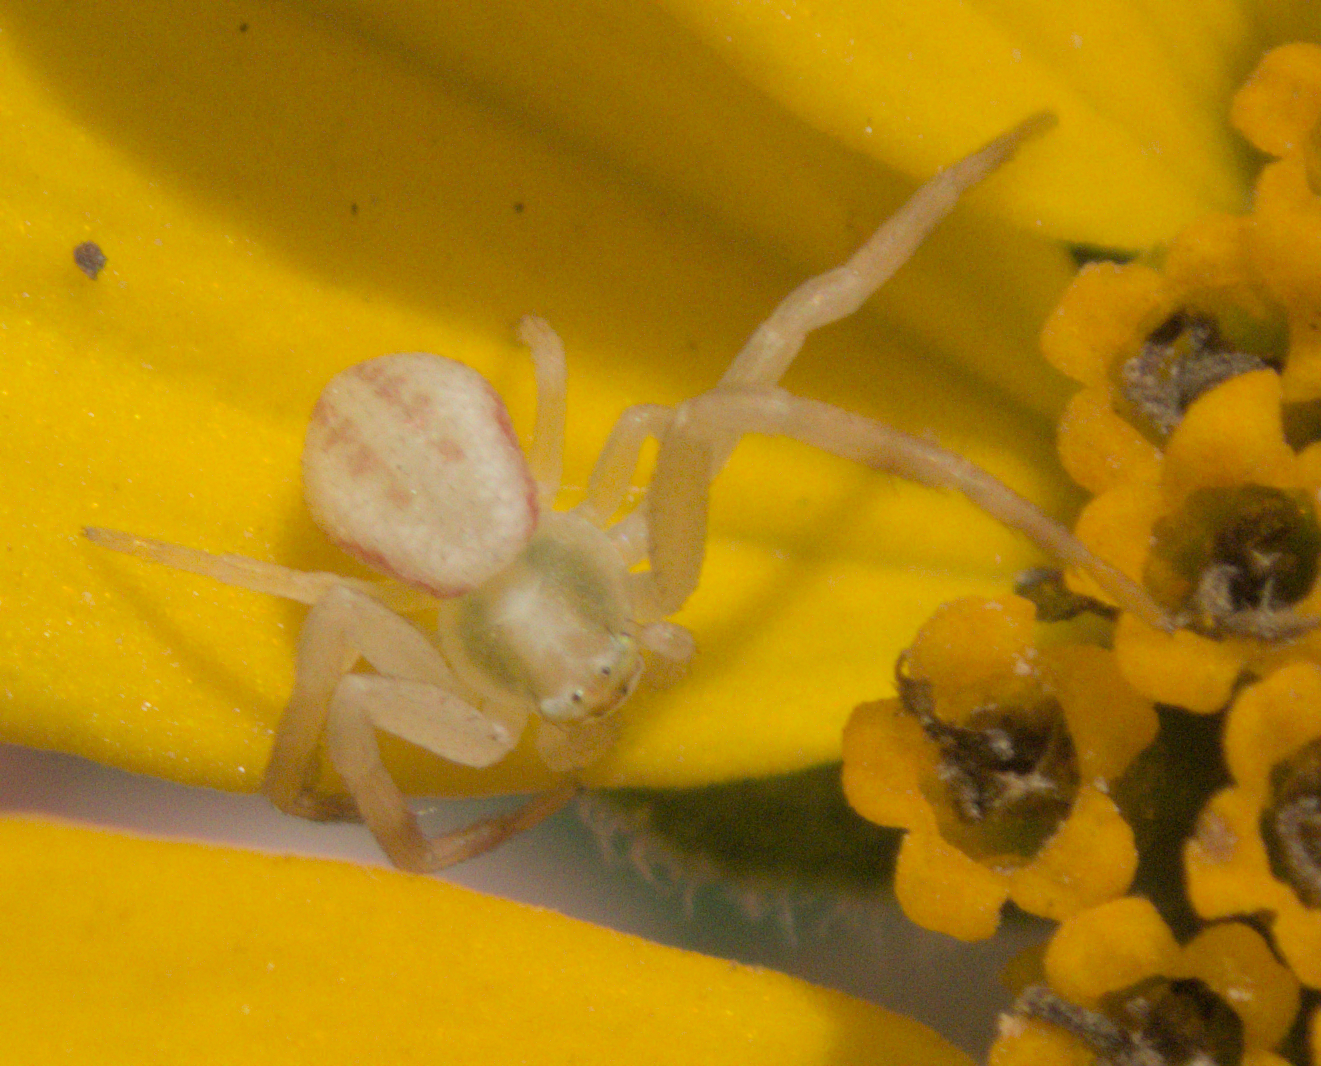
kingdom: Animalia
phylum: Arthropoda
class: Arachnida
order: Araneae
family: Thomisidae
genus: Misumena
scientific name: Misumena vatia
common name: Goldenrod crab spider
